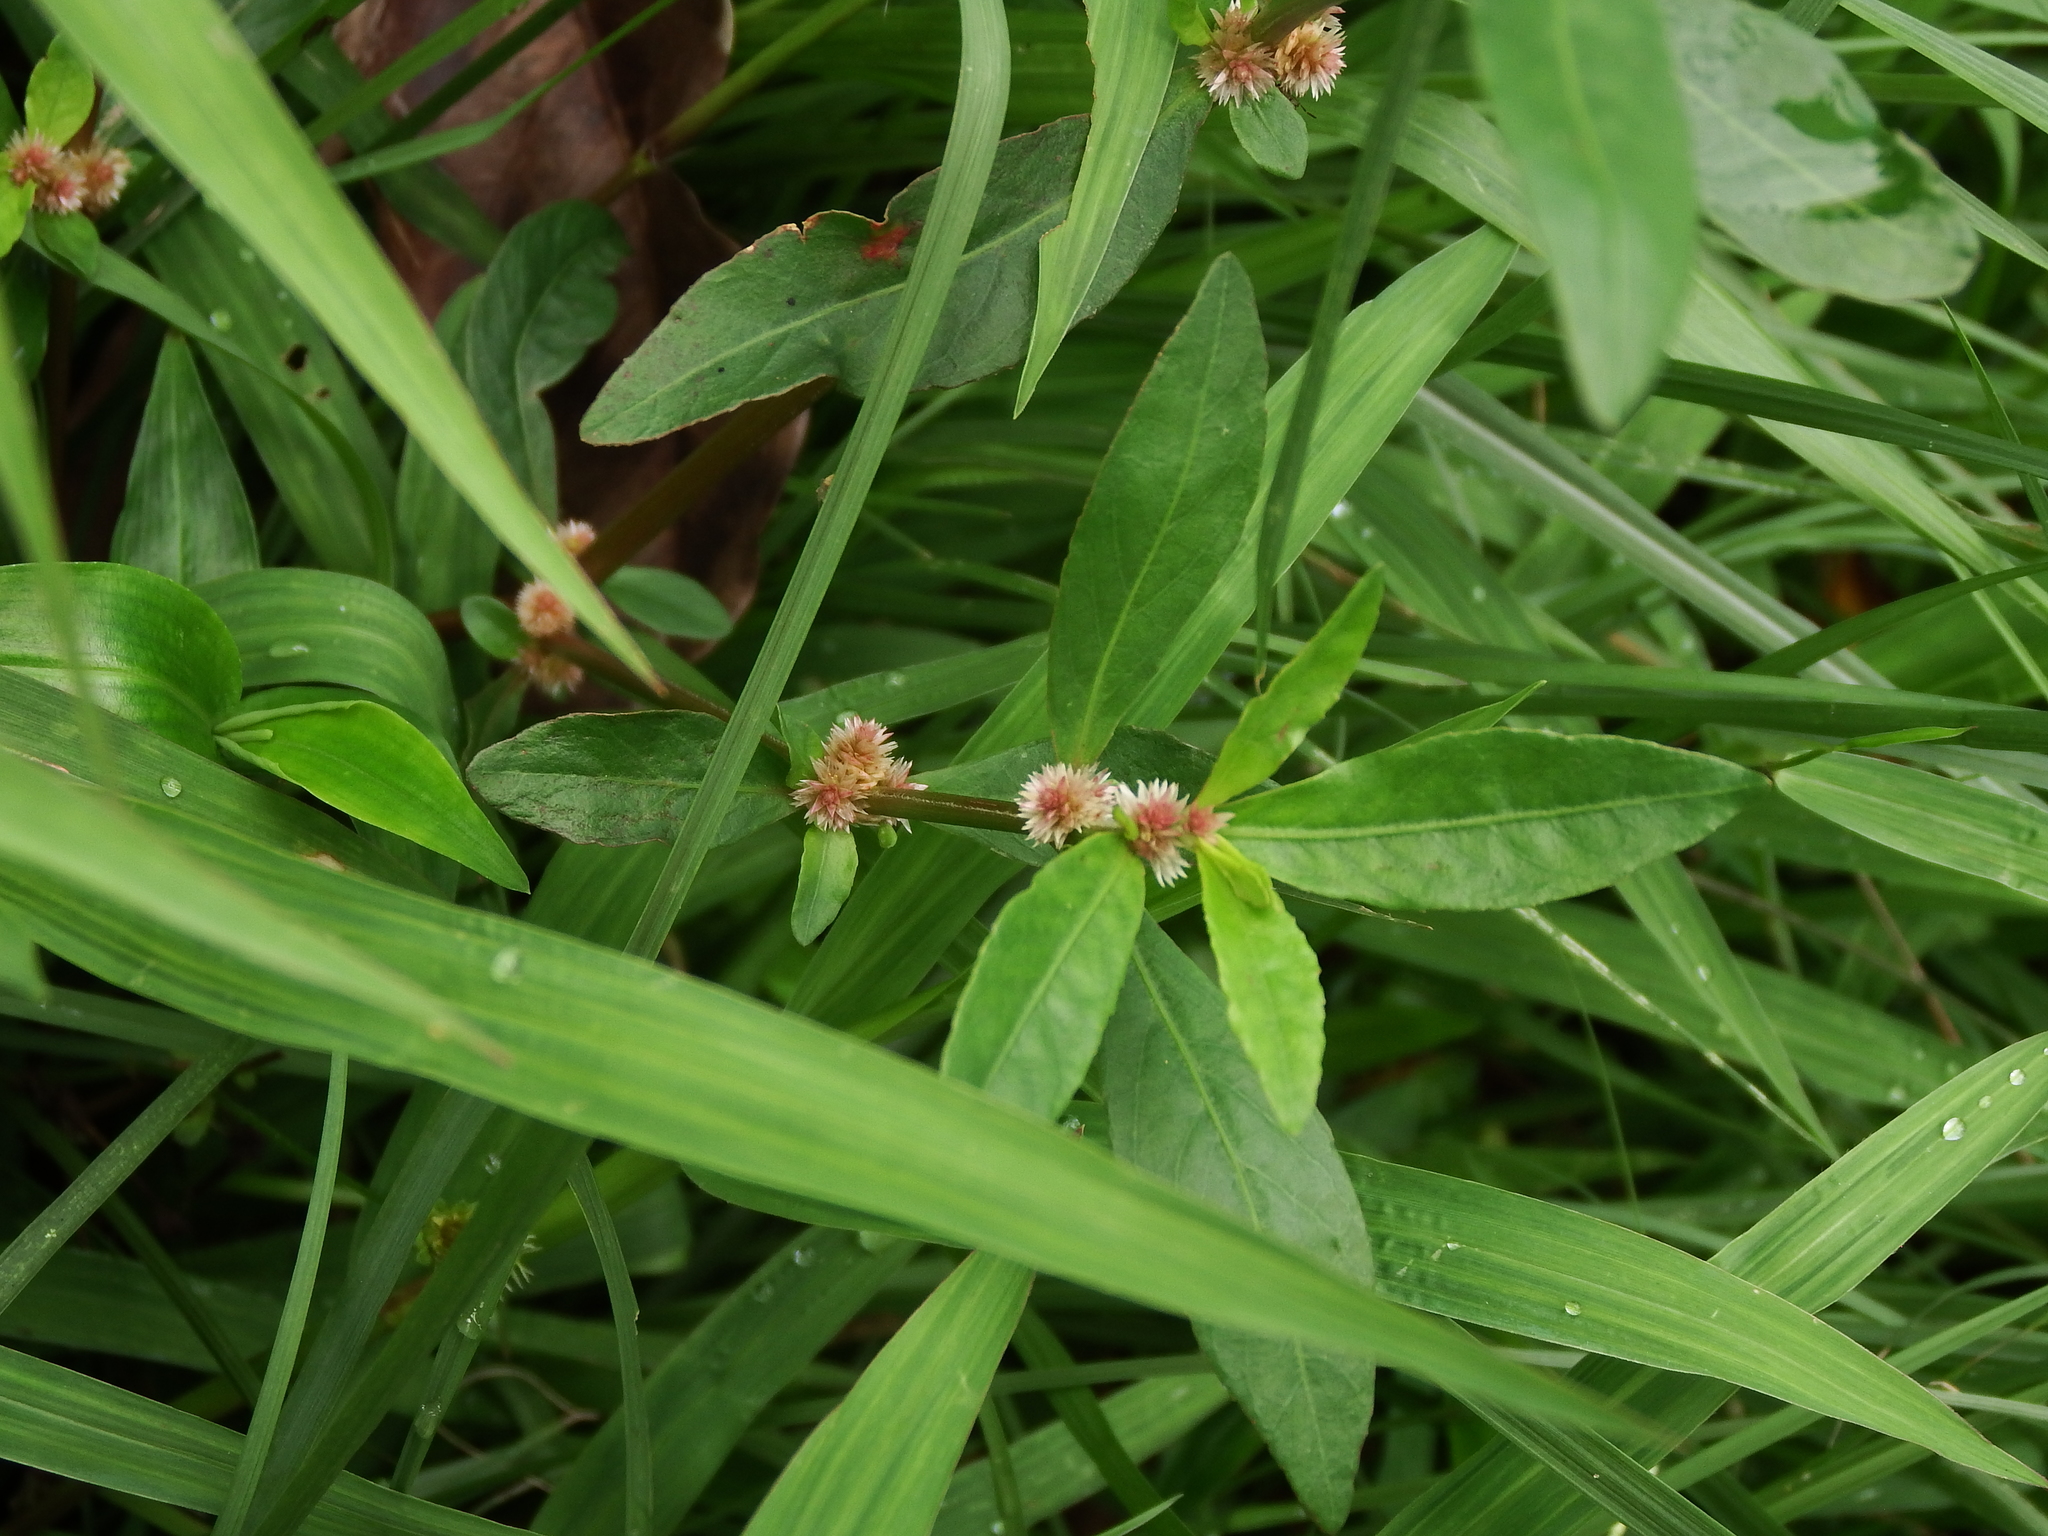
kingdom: Plantae
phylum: Tracheophyta
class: Magnoliopsida
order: Caryophyllales
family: Amaranthaceae
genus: Alternanthera
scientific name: Alternanthera sessilis
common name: Sessile joyweed
